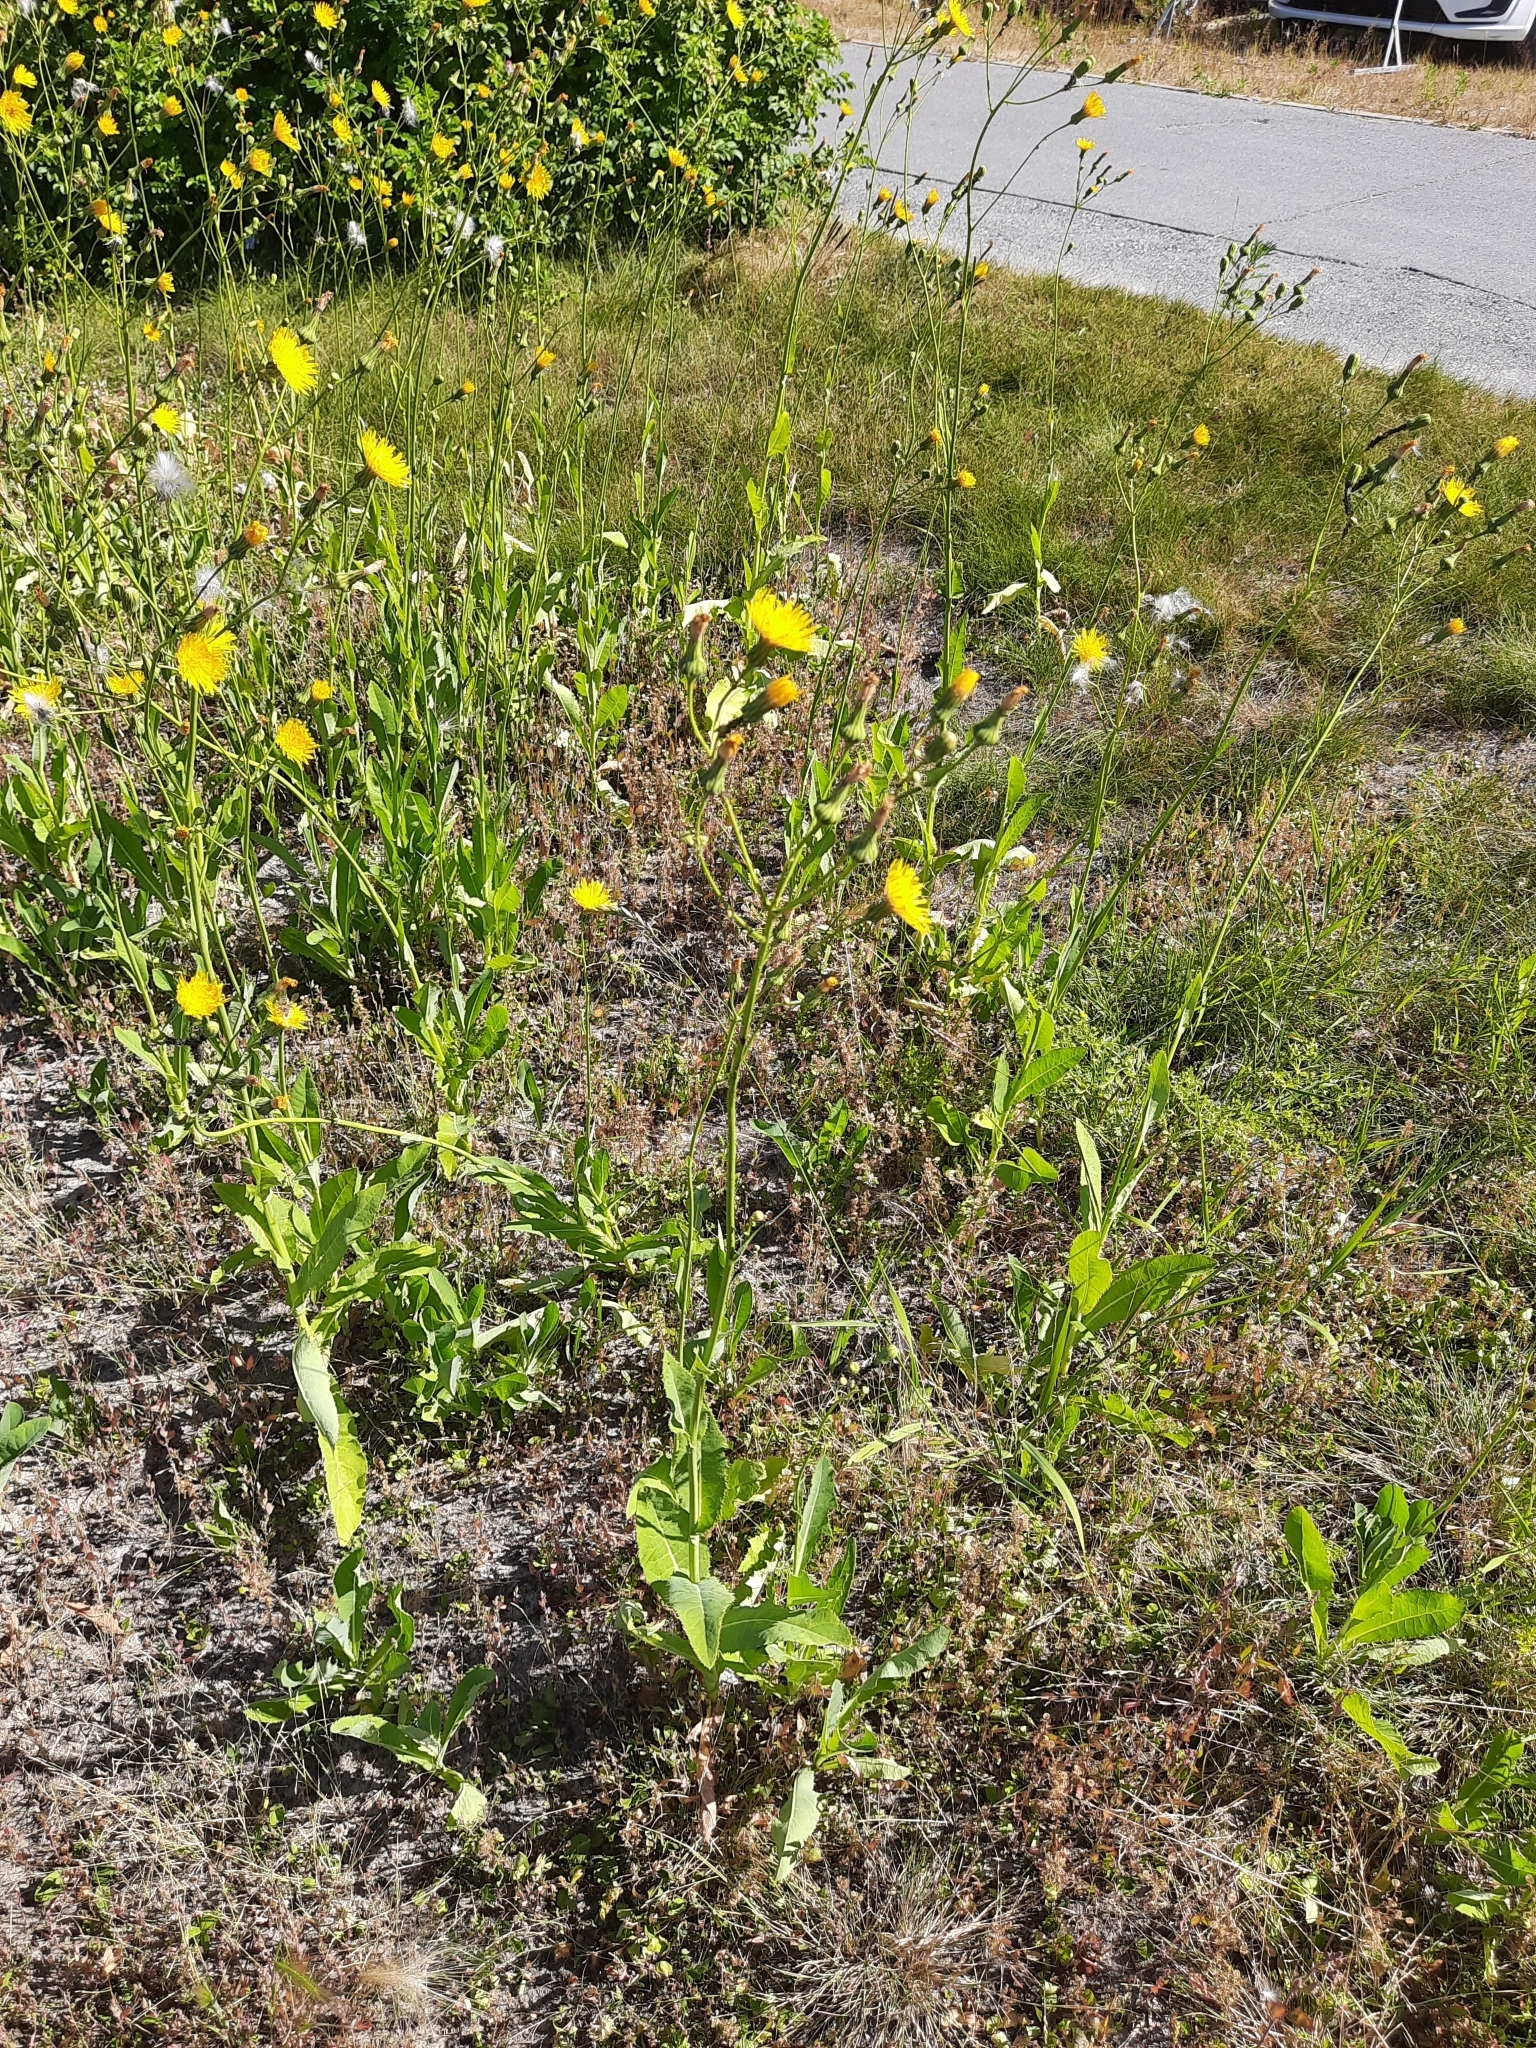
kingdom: Plantae
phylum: Tracheophyta
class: Magnoliopsida
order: Asterales
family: Asteraceae
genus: Sonchus
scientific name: Sonchus arvensis
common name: Perennial sow-thistle
